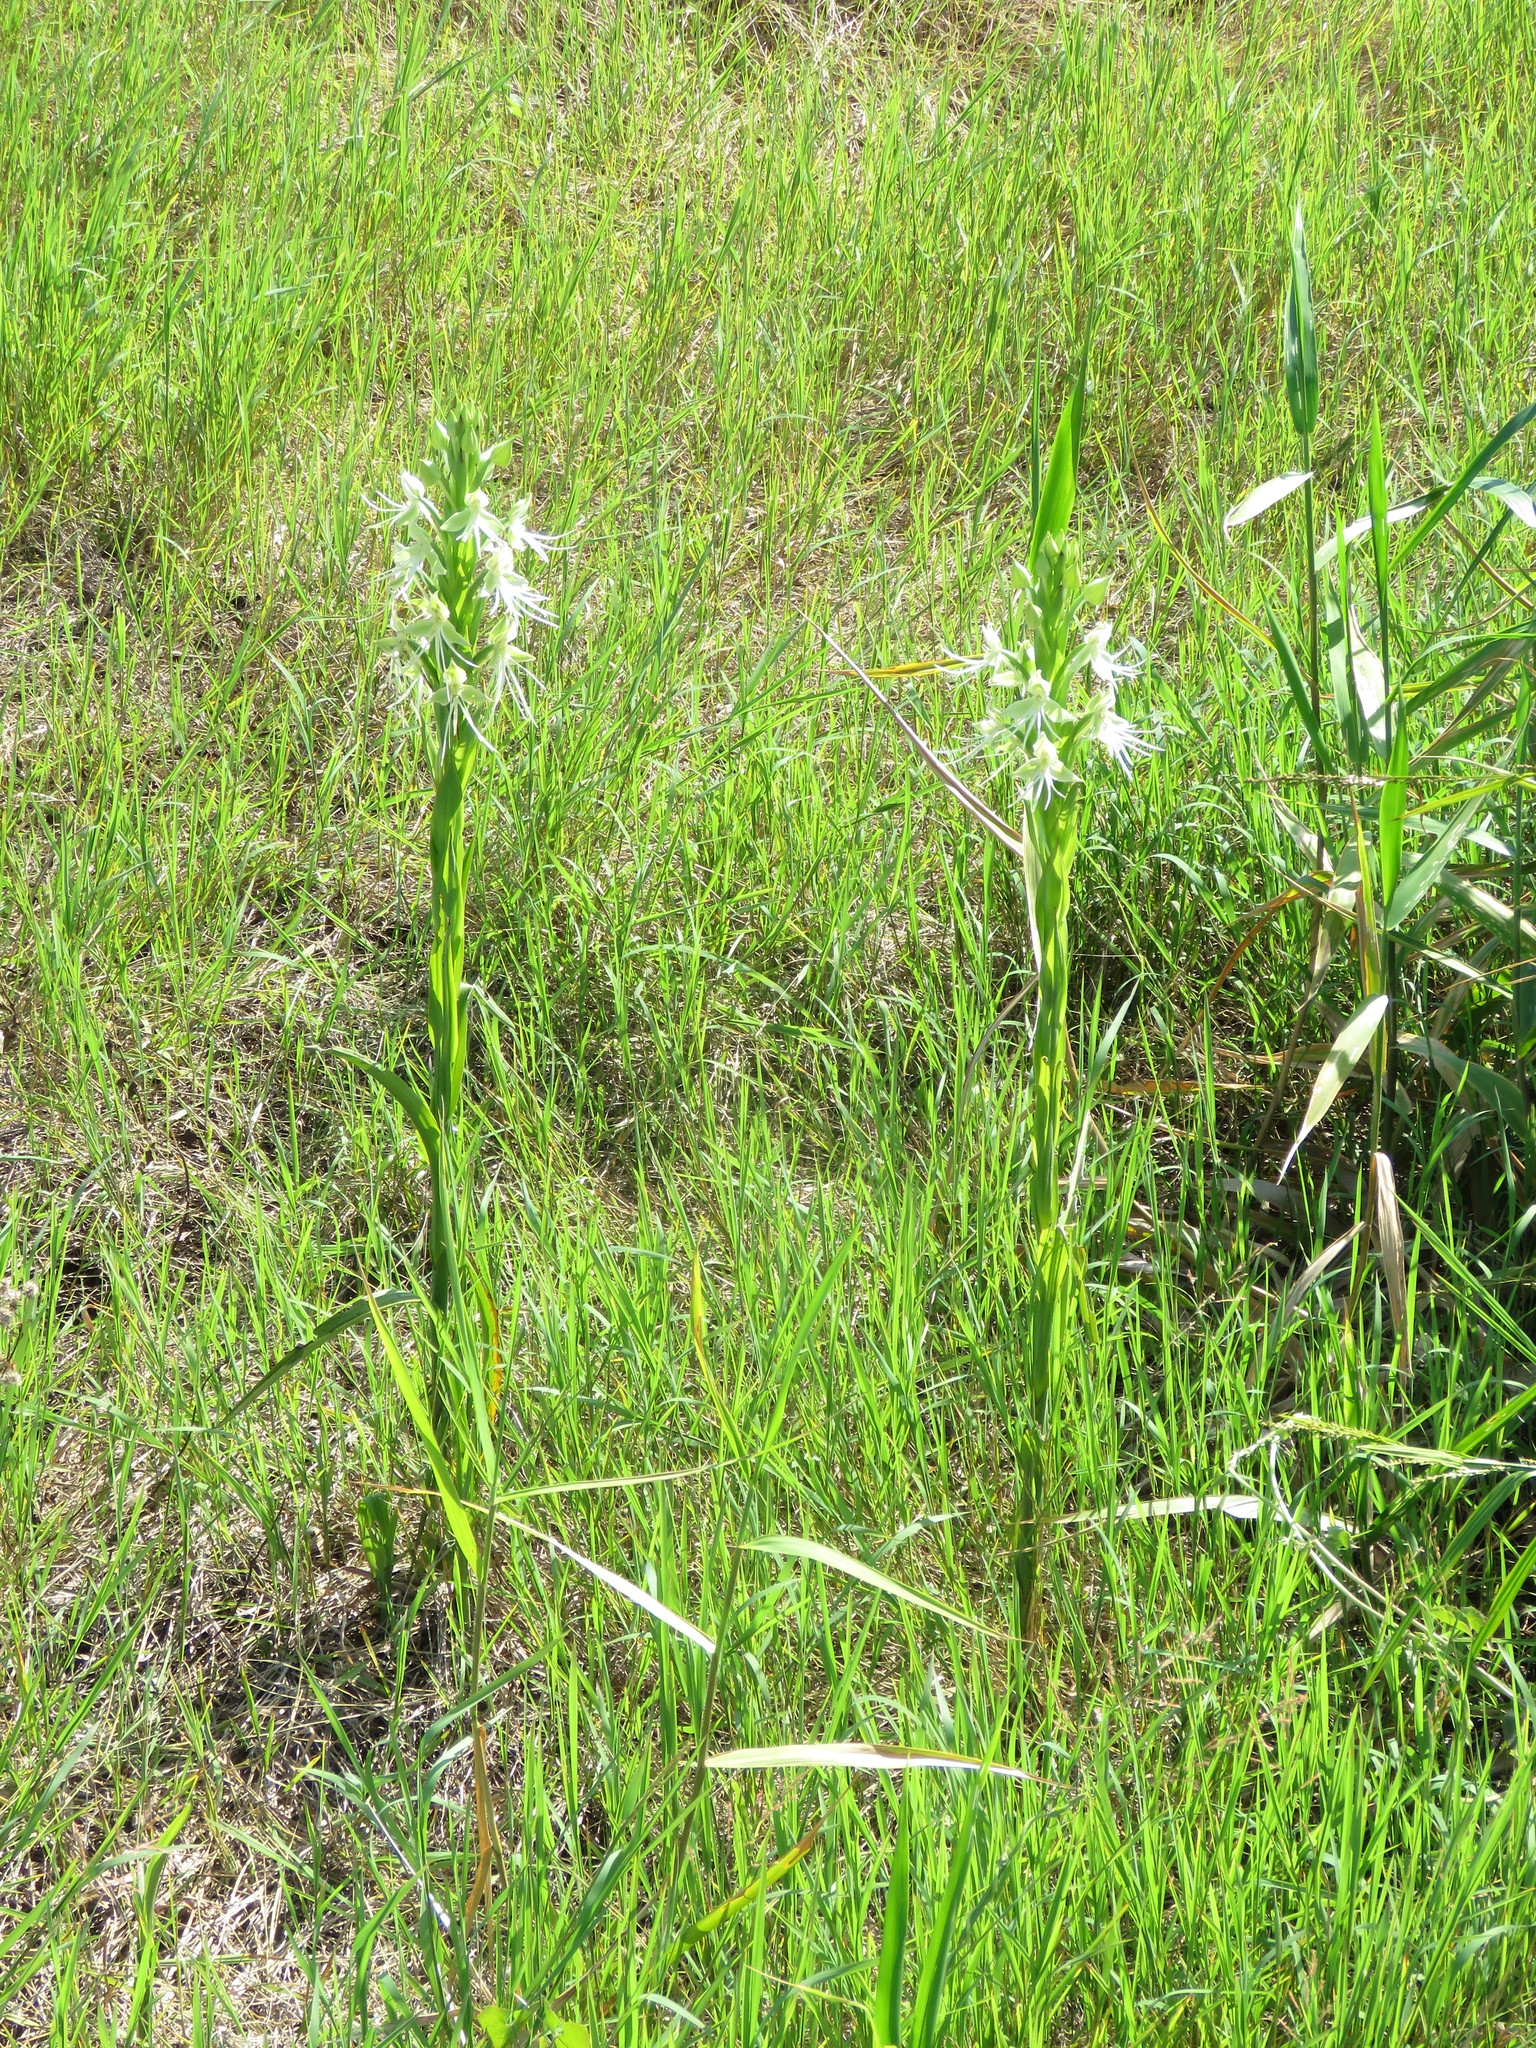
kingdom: Plantae
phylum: Tracheophyta
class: Liliopsida
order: Asparagales
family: Orchidaceae
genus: Habenaria
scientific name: Habenaria melvillei
